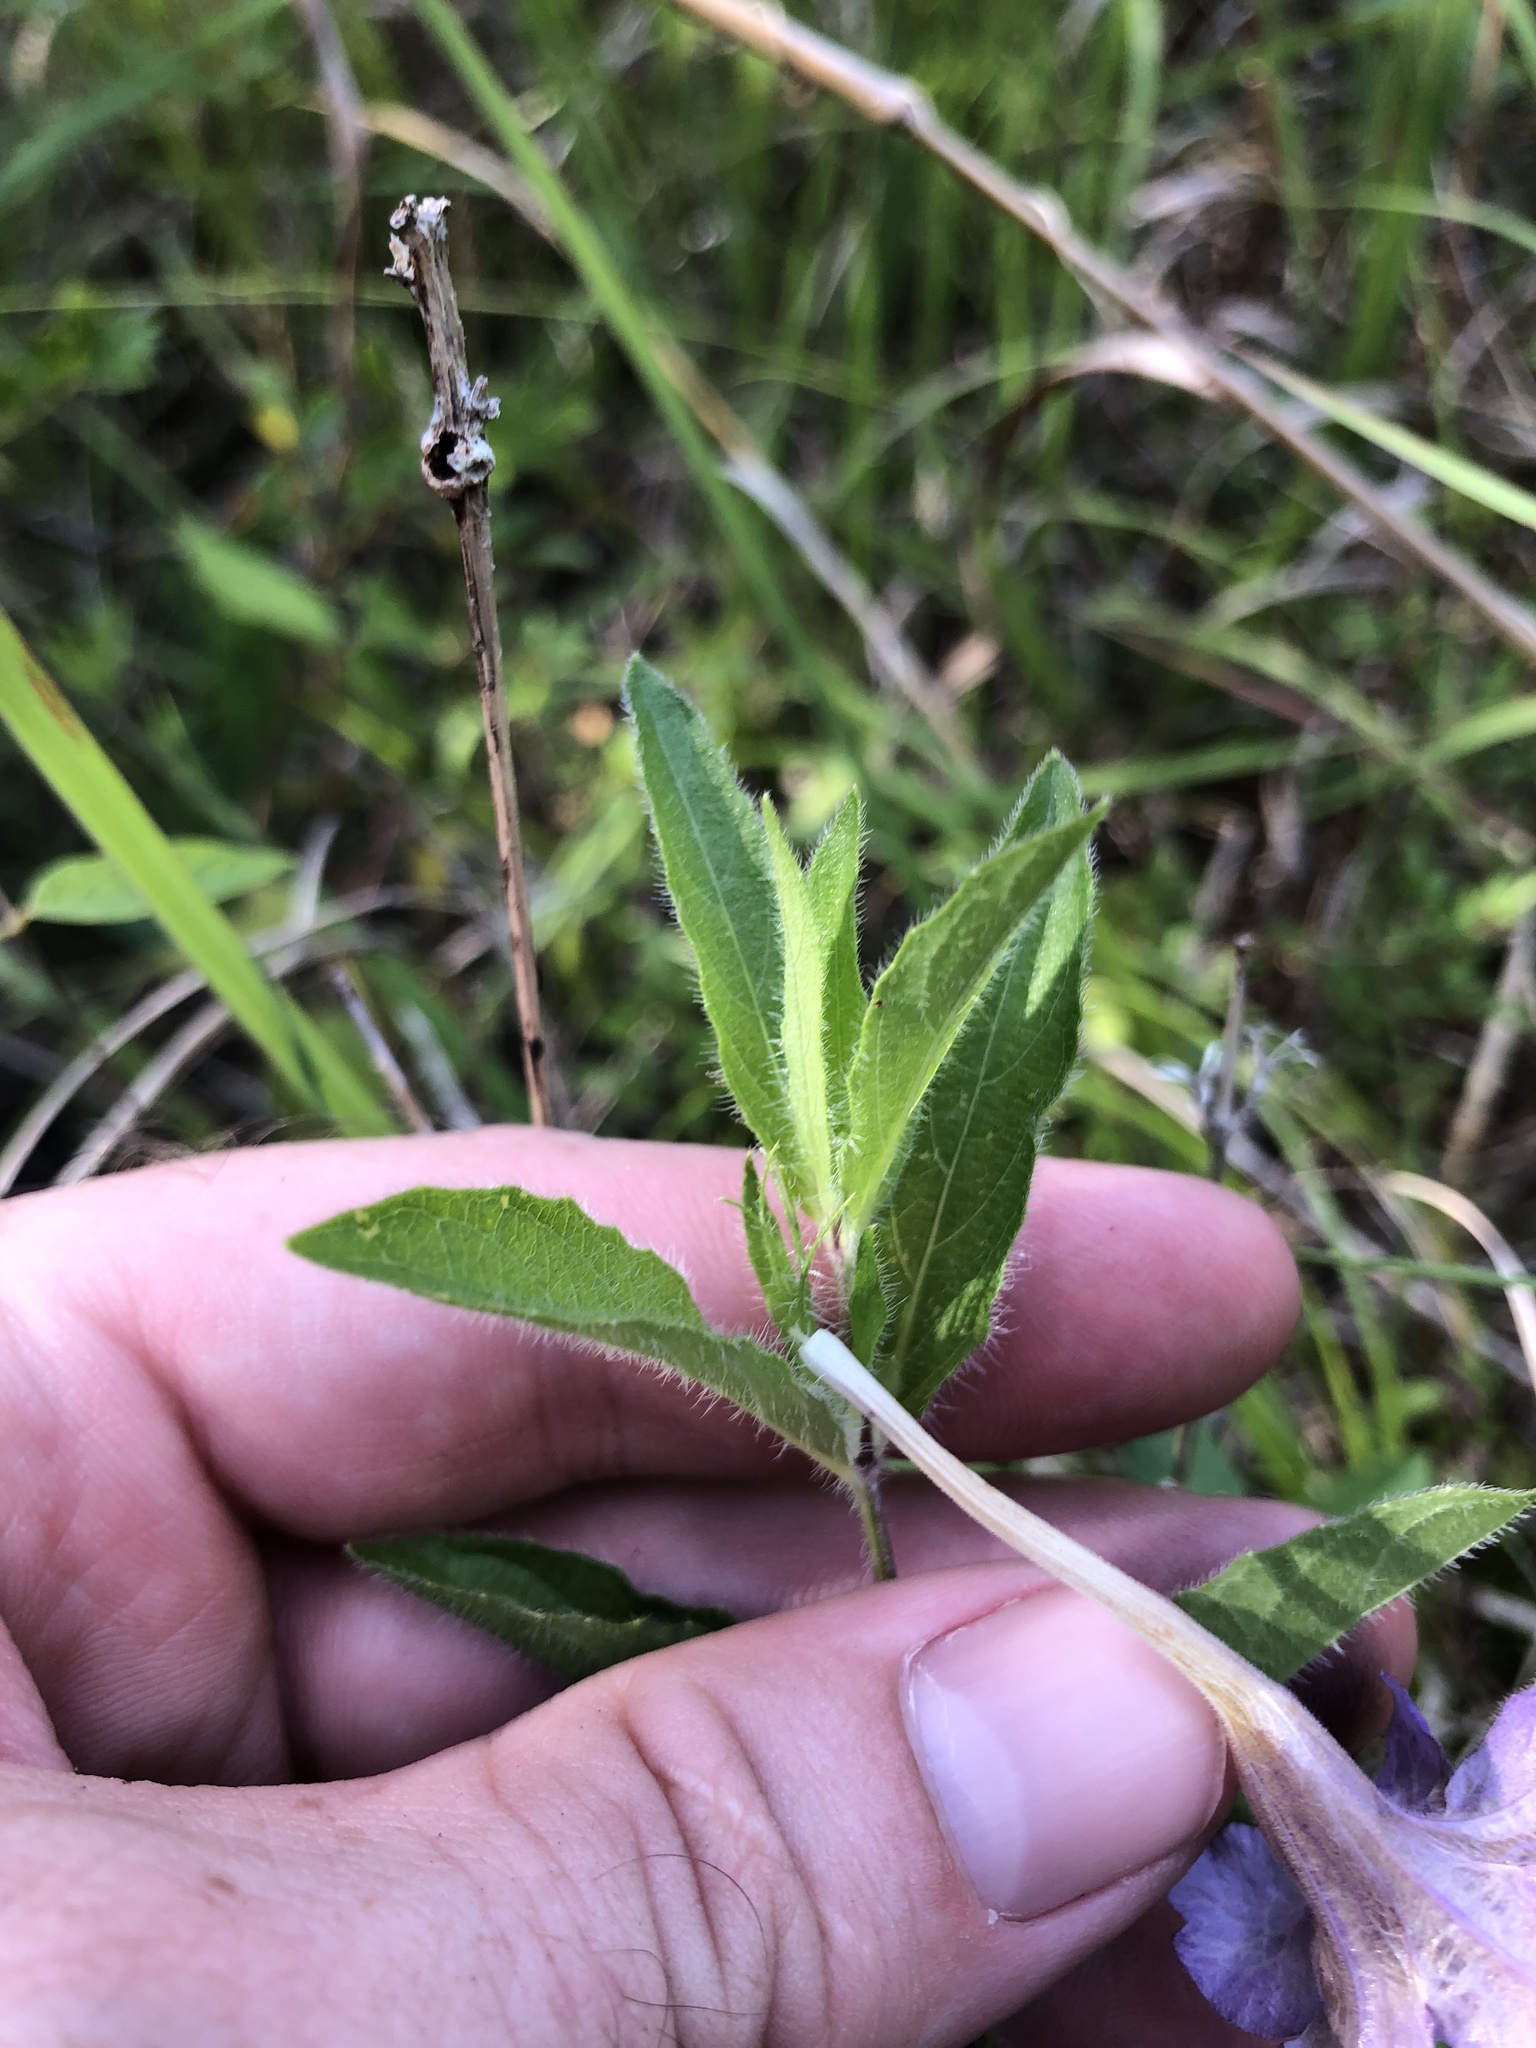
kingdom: Plantae
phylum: Tracheophyta
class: Magnoliopsida
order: Lamiales
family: Acanthaceae
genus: Ruellia
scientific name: Ruellia humilis
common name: Fringe-leaf ruellia
